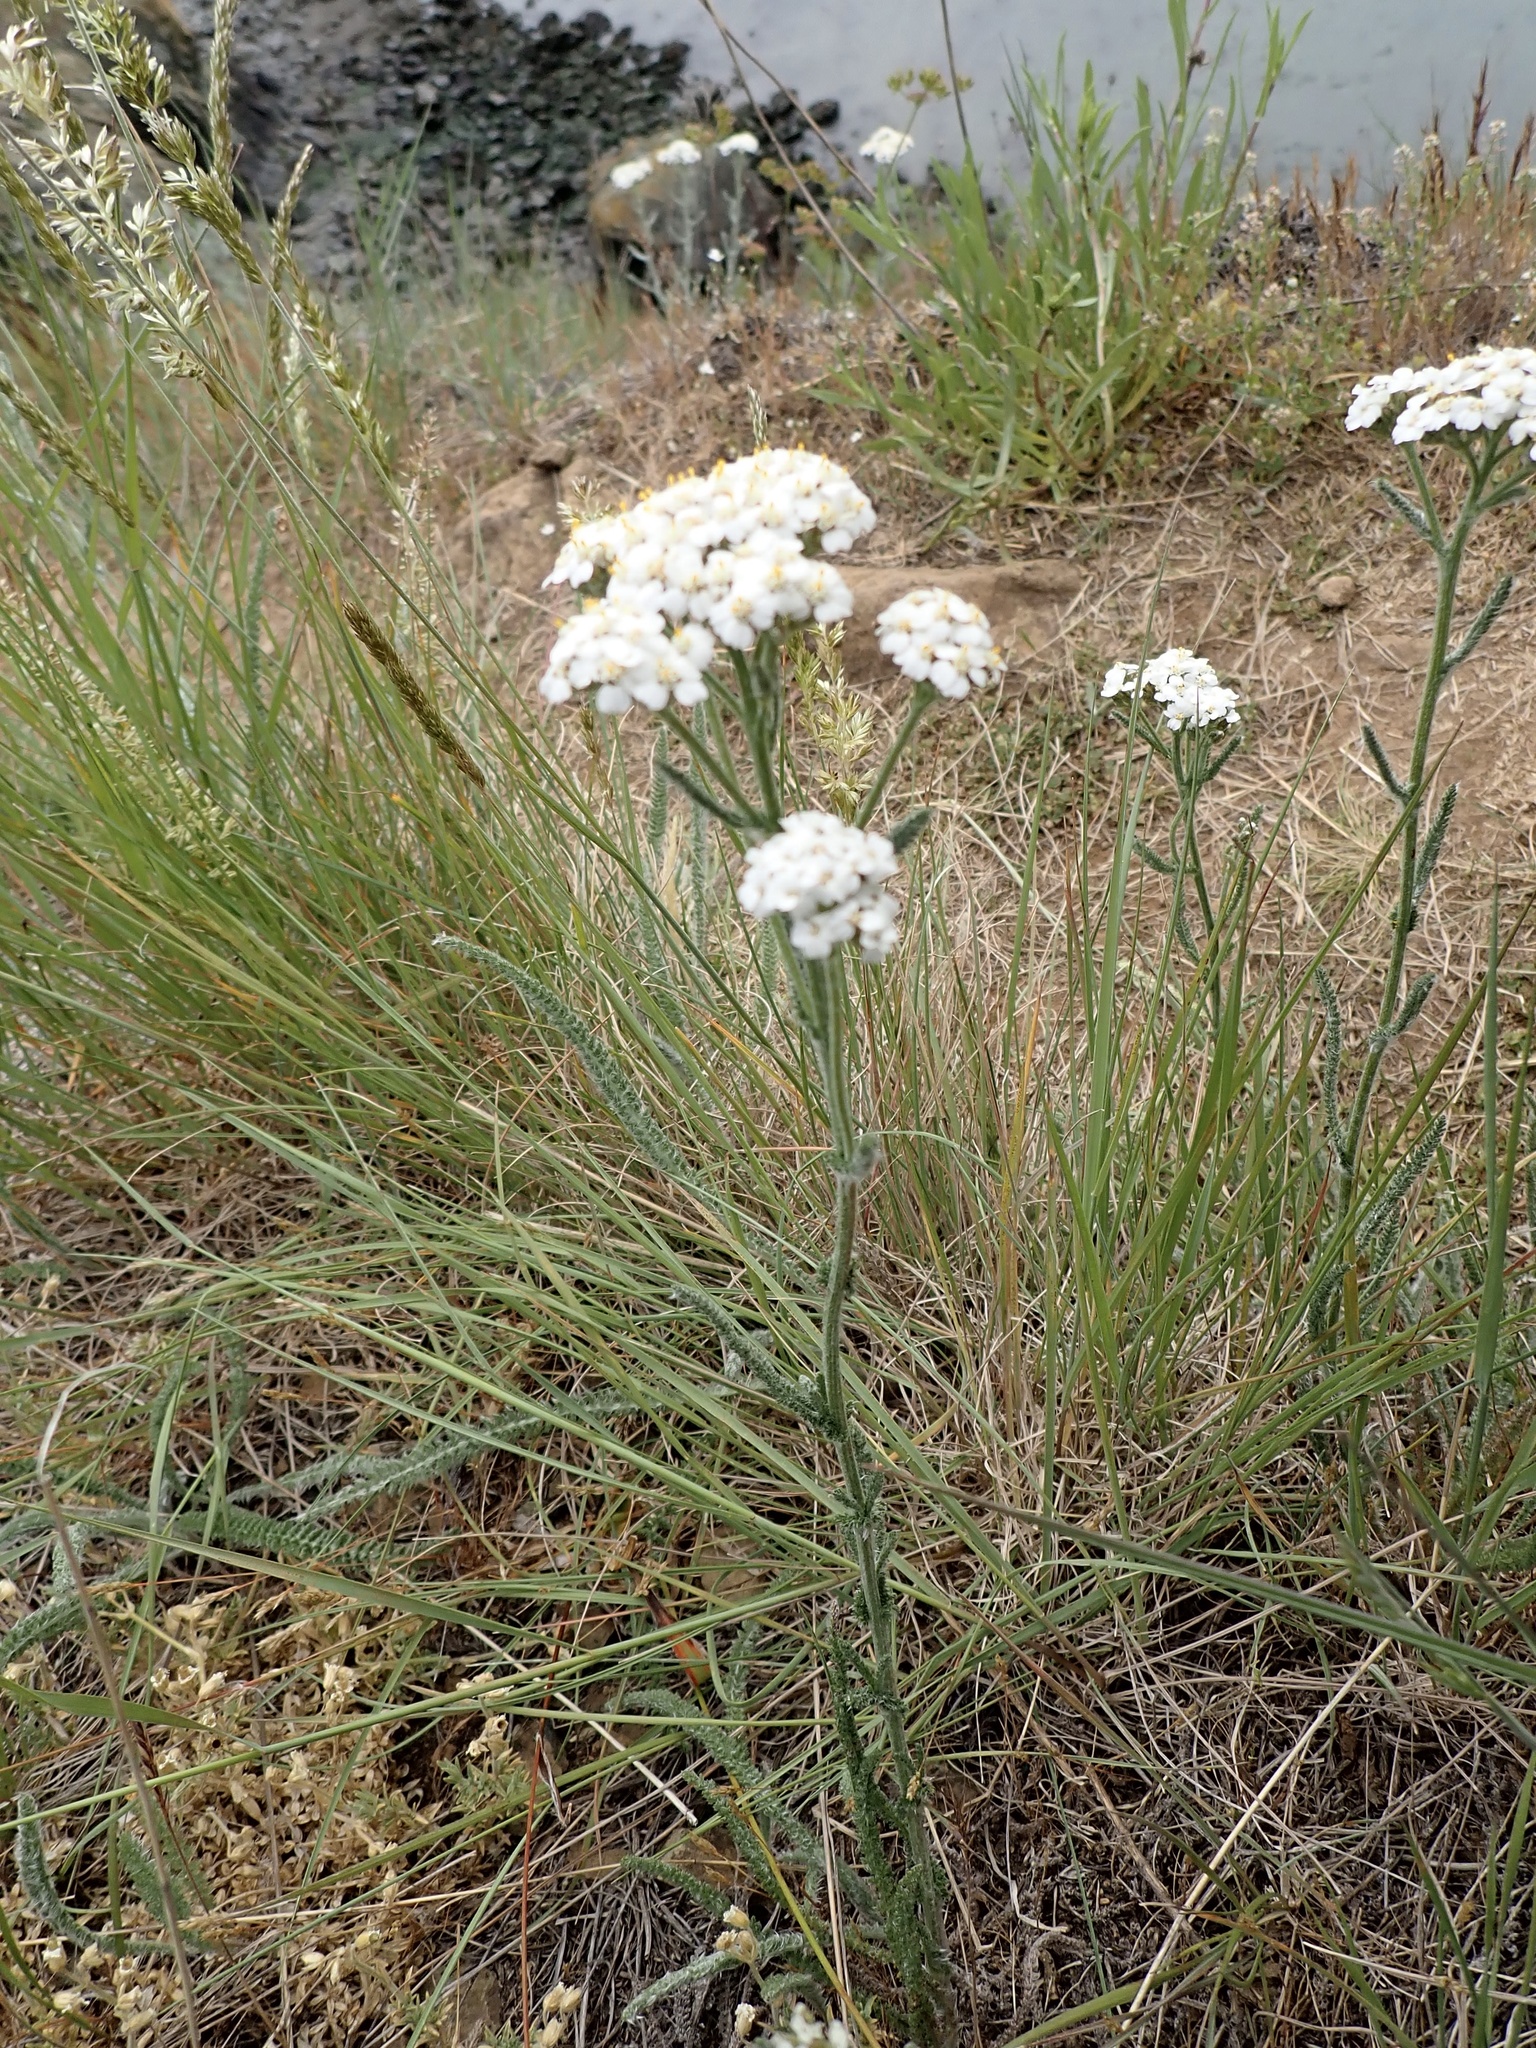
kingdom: Plantae
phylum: Tracheophyta
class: Magnoliopsida
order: Asterales
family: Asteraceae
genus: Achillea
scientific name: Achillea millefolium
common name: Yarrow
